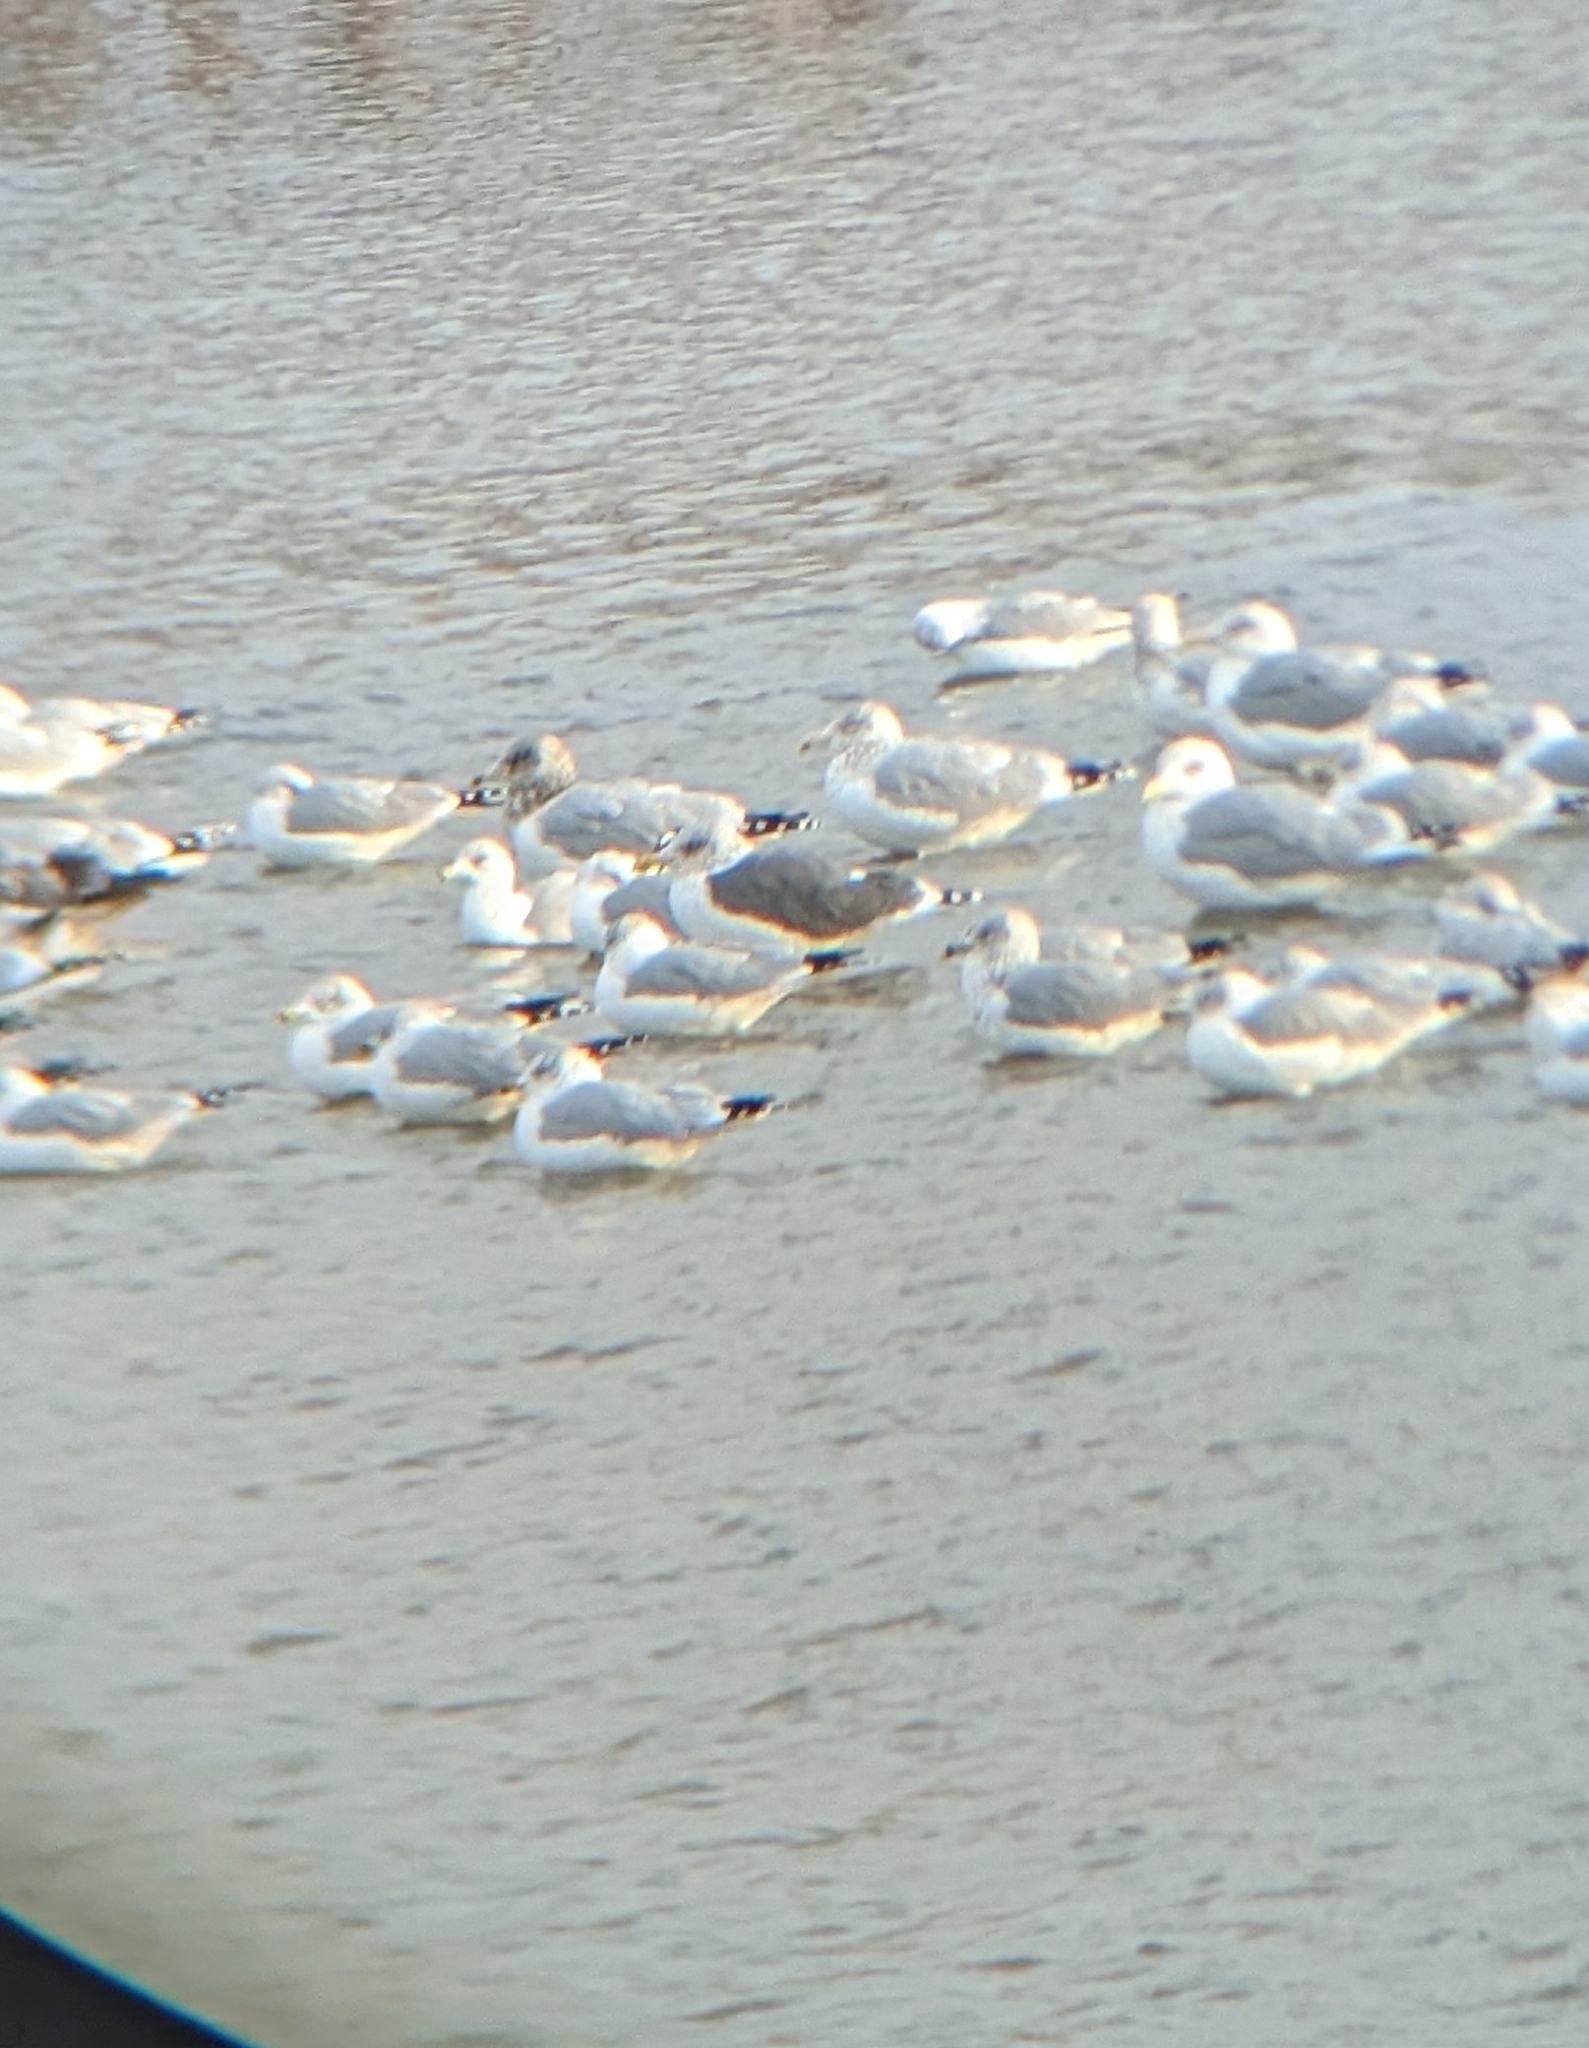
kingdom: Animalia
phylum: Chordata
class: Aves
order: Charadriiformes
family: Laridae
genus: Larus
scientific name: Larus delawarensis
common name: Ring-billed gull
